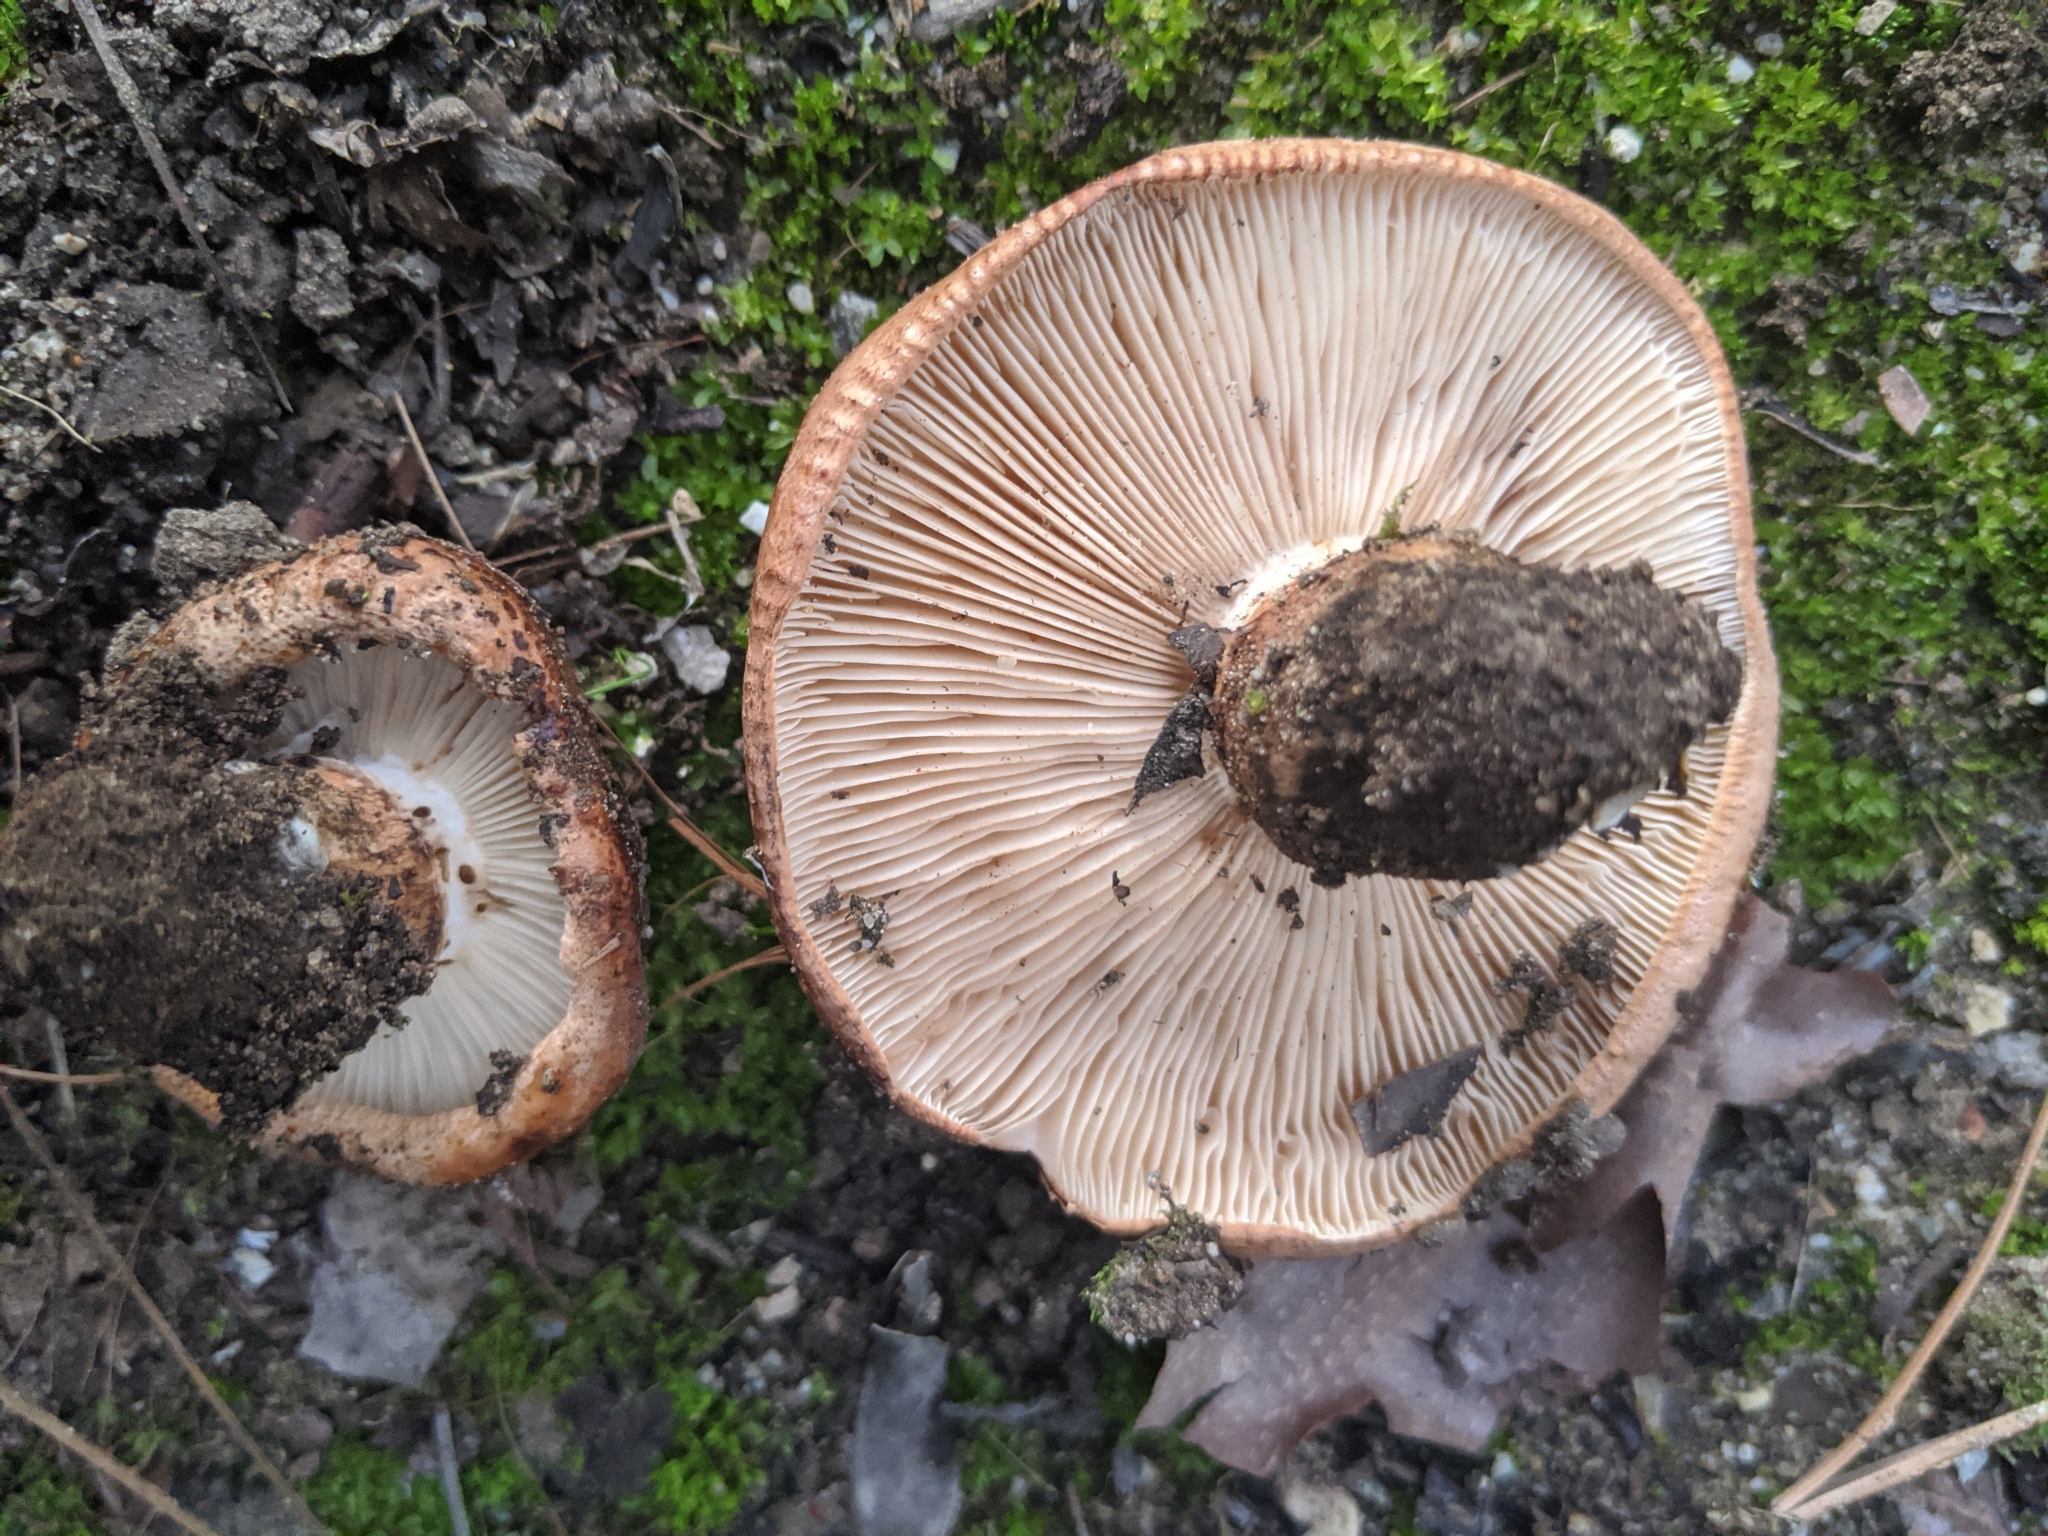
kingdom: Fungi
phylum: Basidiomycota
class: Agaricomycetes
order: Agaricales
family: Tricholomataceae
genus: Tricholoma
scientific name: Tricholoma fracticum
